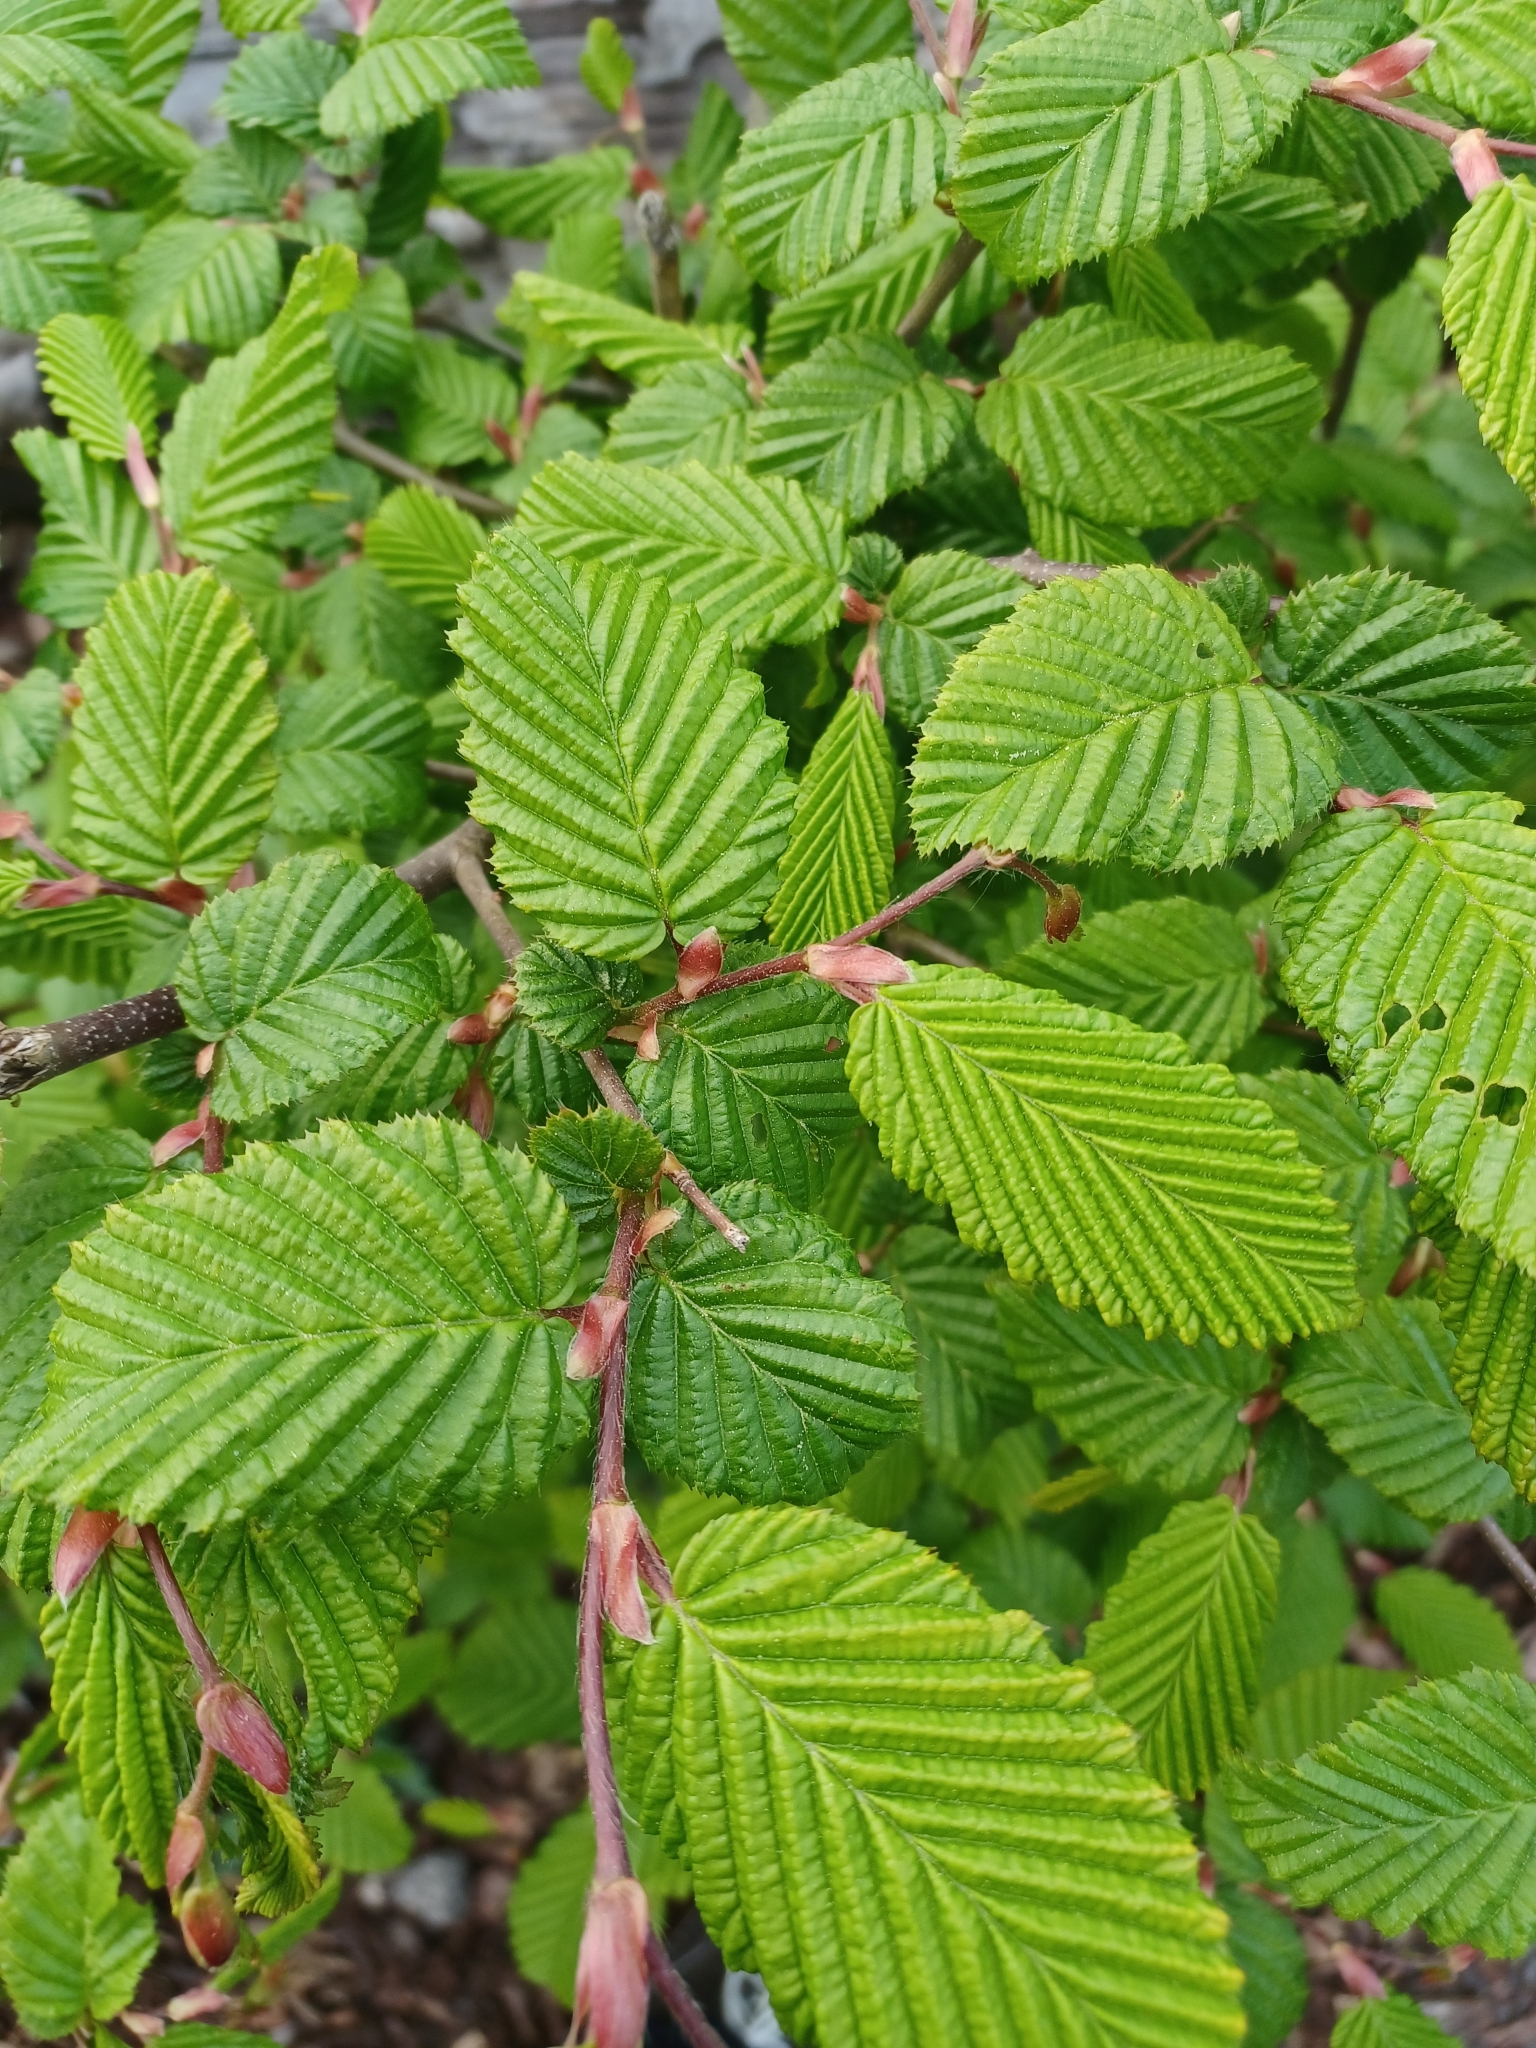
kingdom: Plantae
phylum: Tracheophyta
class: Magnoliopsida
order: Fagales
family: Betulaceae
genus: Carpinus
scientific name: Carpinus betulus
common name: Hornbeam
